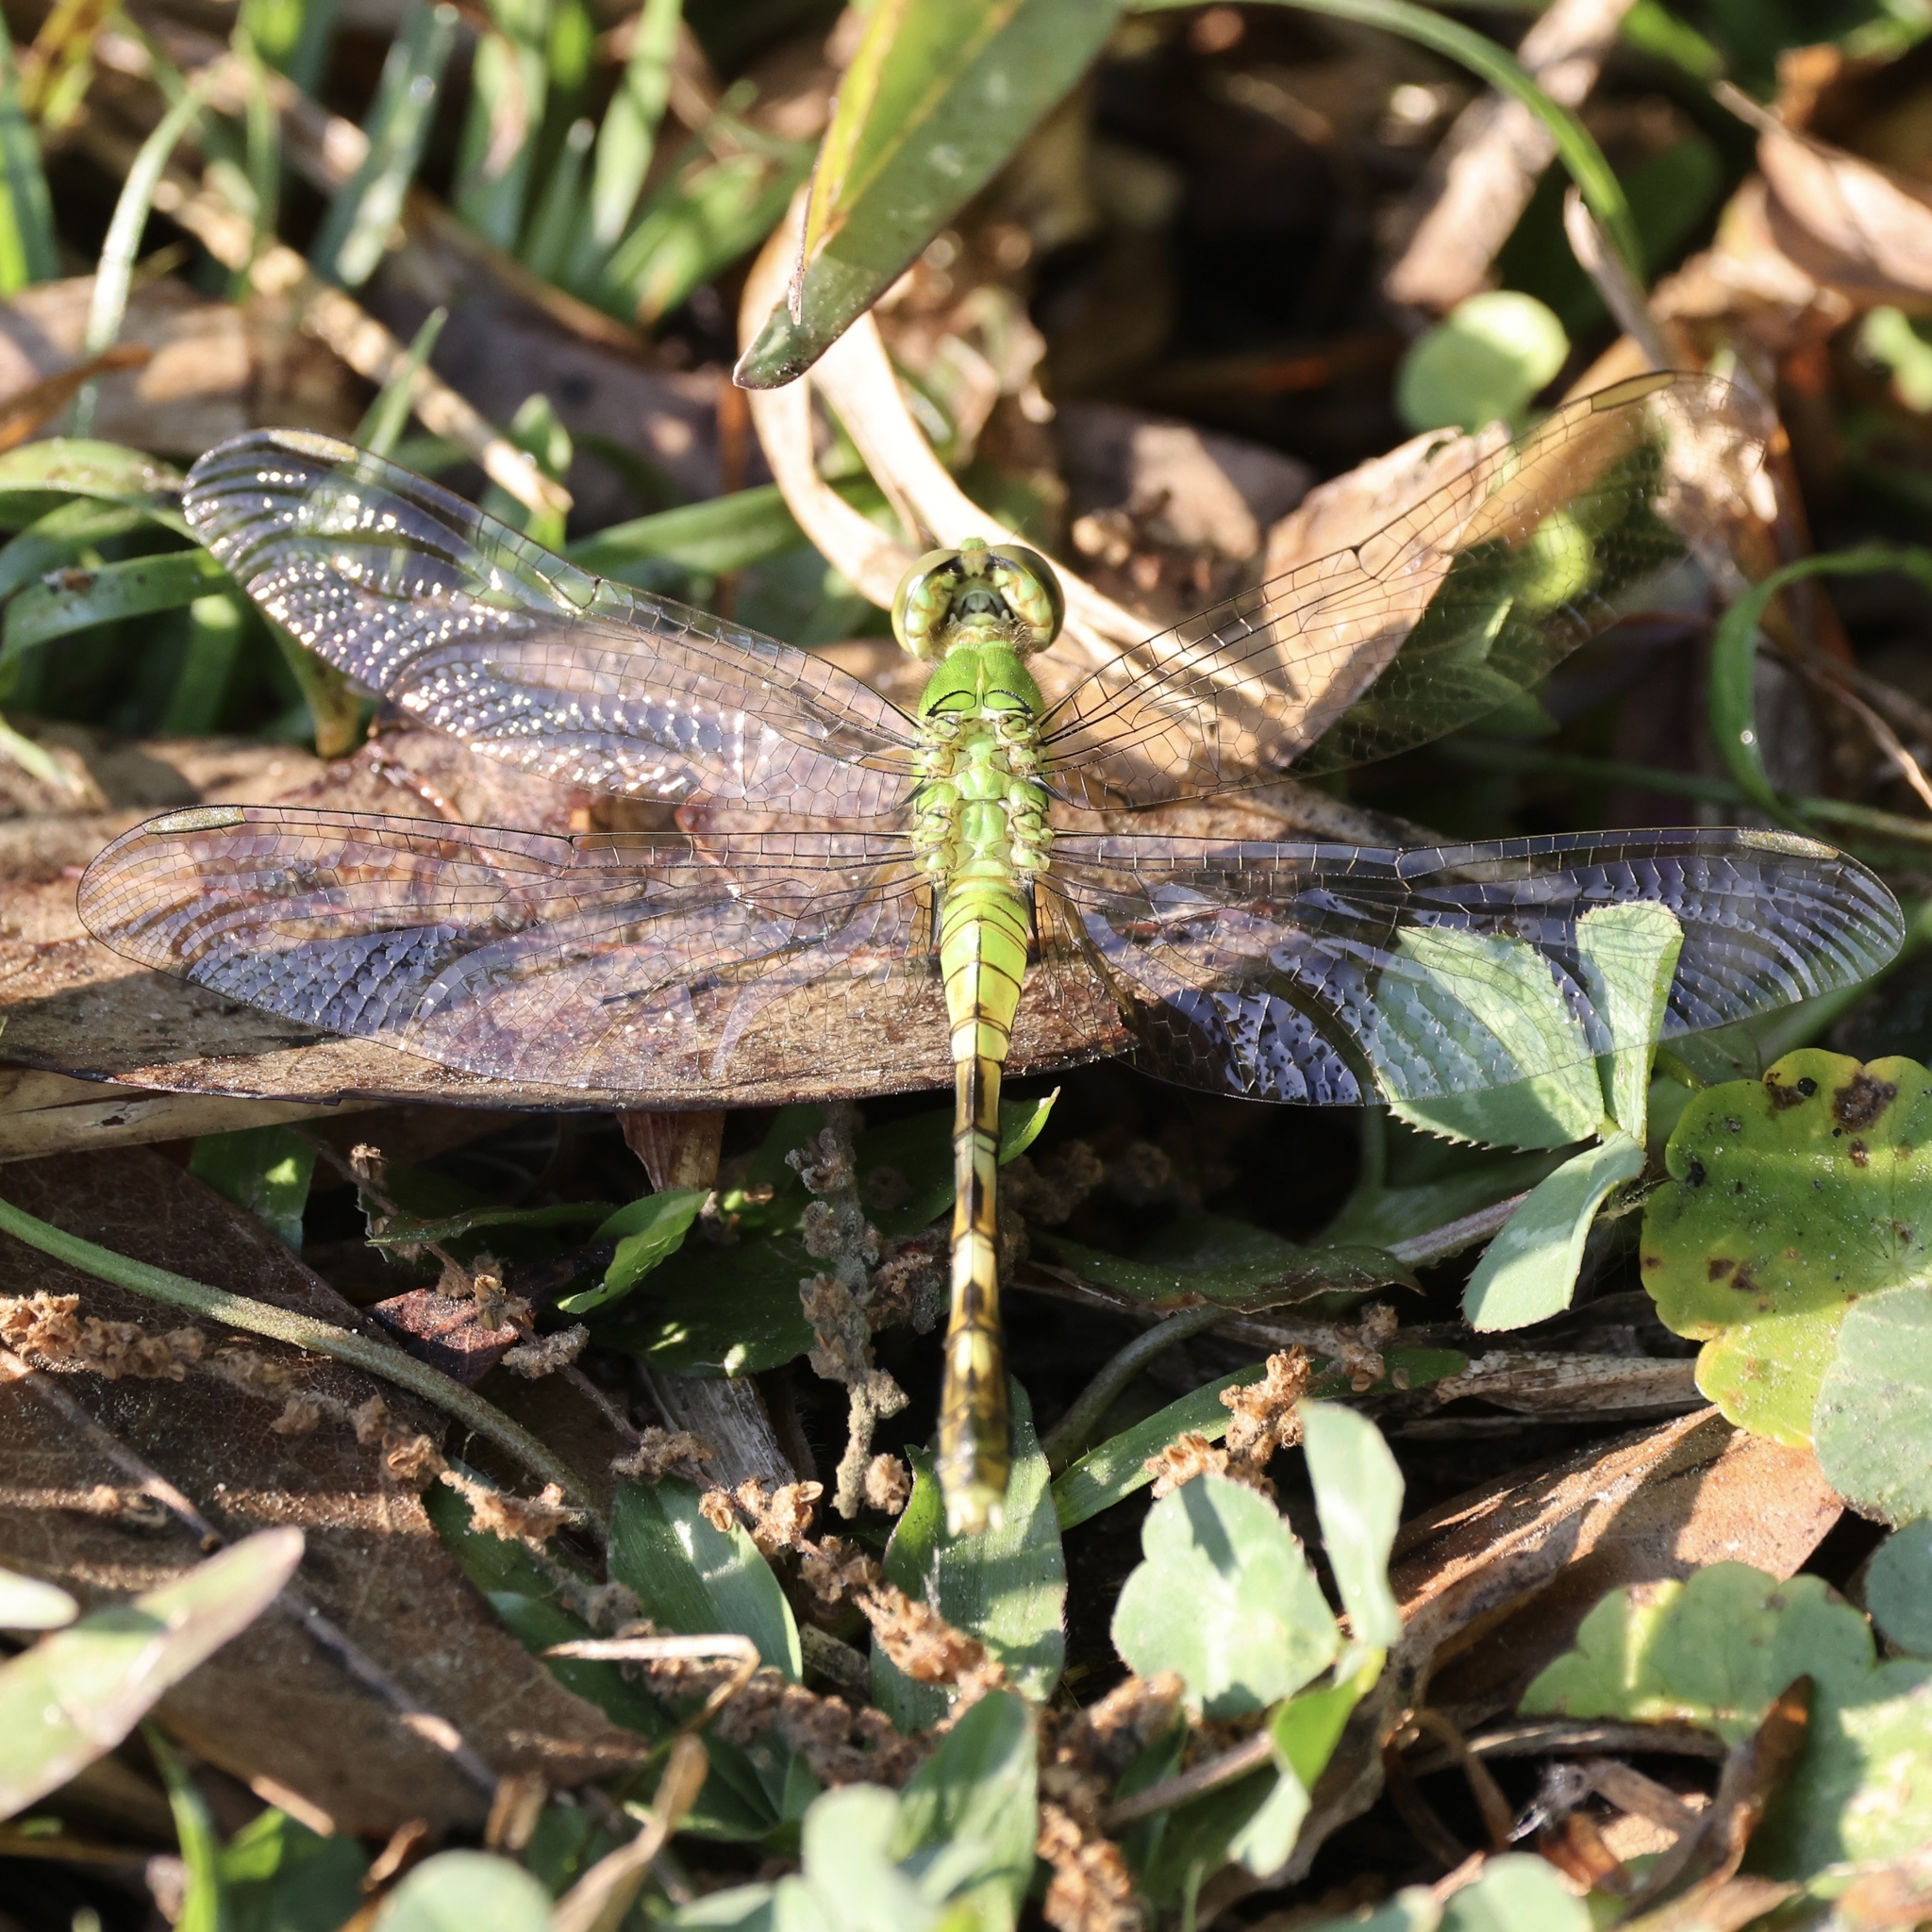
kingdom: Animalia
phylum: Arthropoda
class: Insecta
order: Odonata
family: Libellulidae
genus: Erythemis
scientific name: Erythemis simplicicollis
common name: Eastern pondhawk
